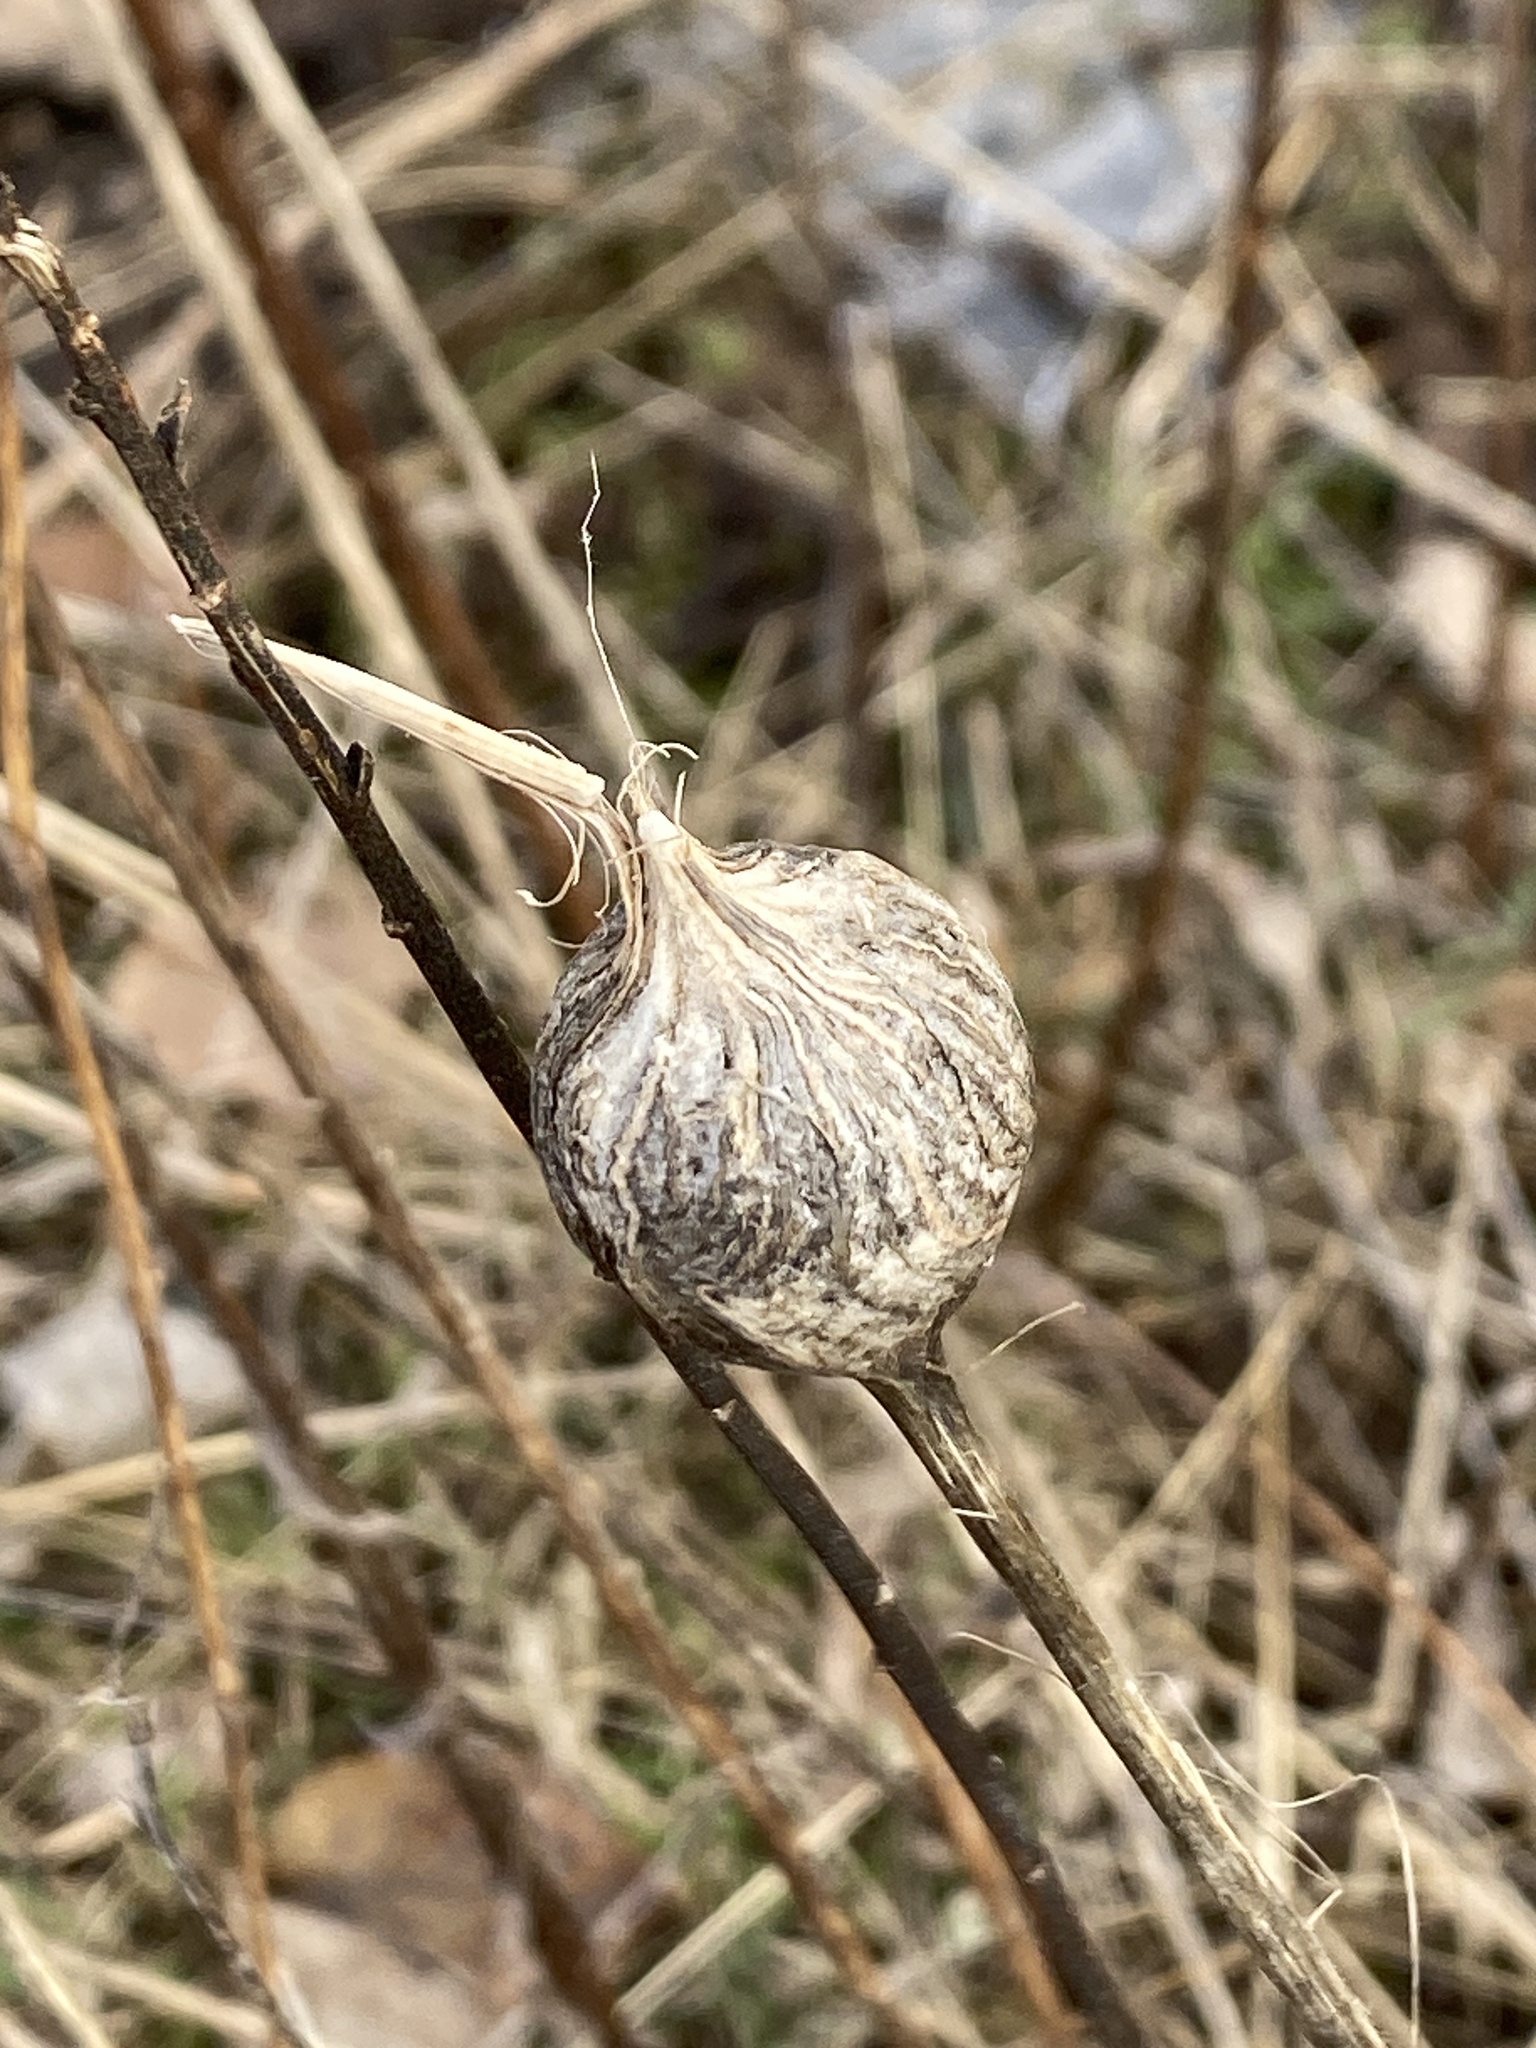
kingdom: Animalia
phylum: Arthropoda
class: Insecta
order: Diptera
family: Tephritidae
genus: Eurosta
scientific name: Eurosta solidaginis
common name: Goldenrod gall fly
